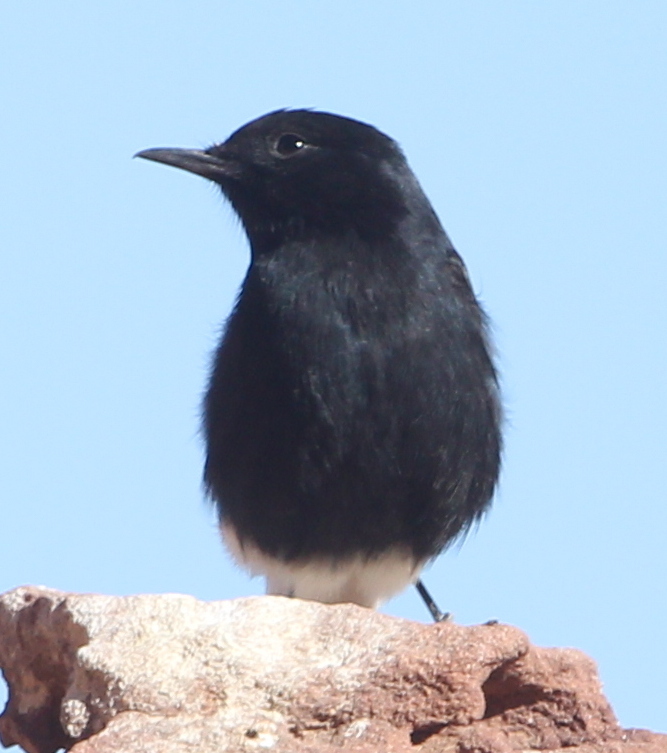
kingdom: Animalia
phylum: Chordata
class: Aves
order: Passeriformes
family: Muscicapidae
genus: Oenanthe
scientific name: Oenanthe leucopyga
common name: White-crowned wheatear
